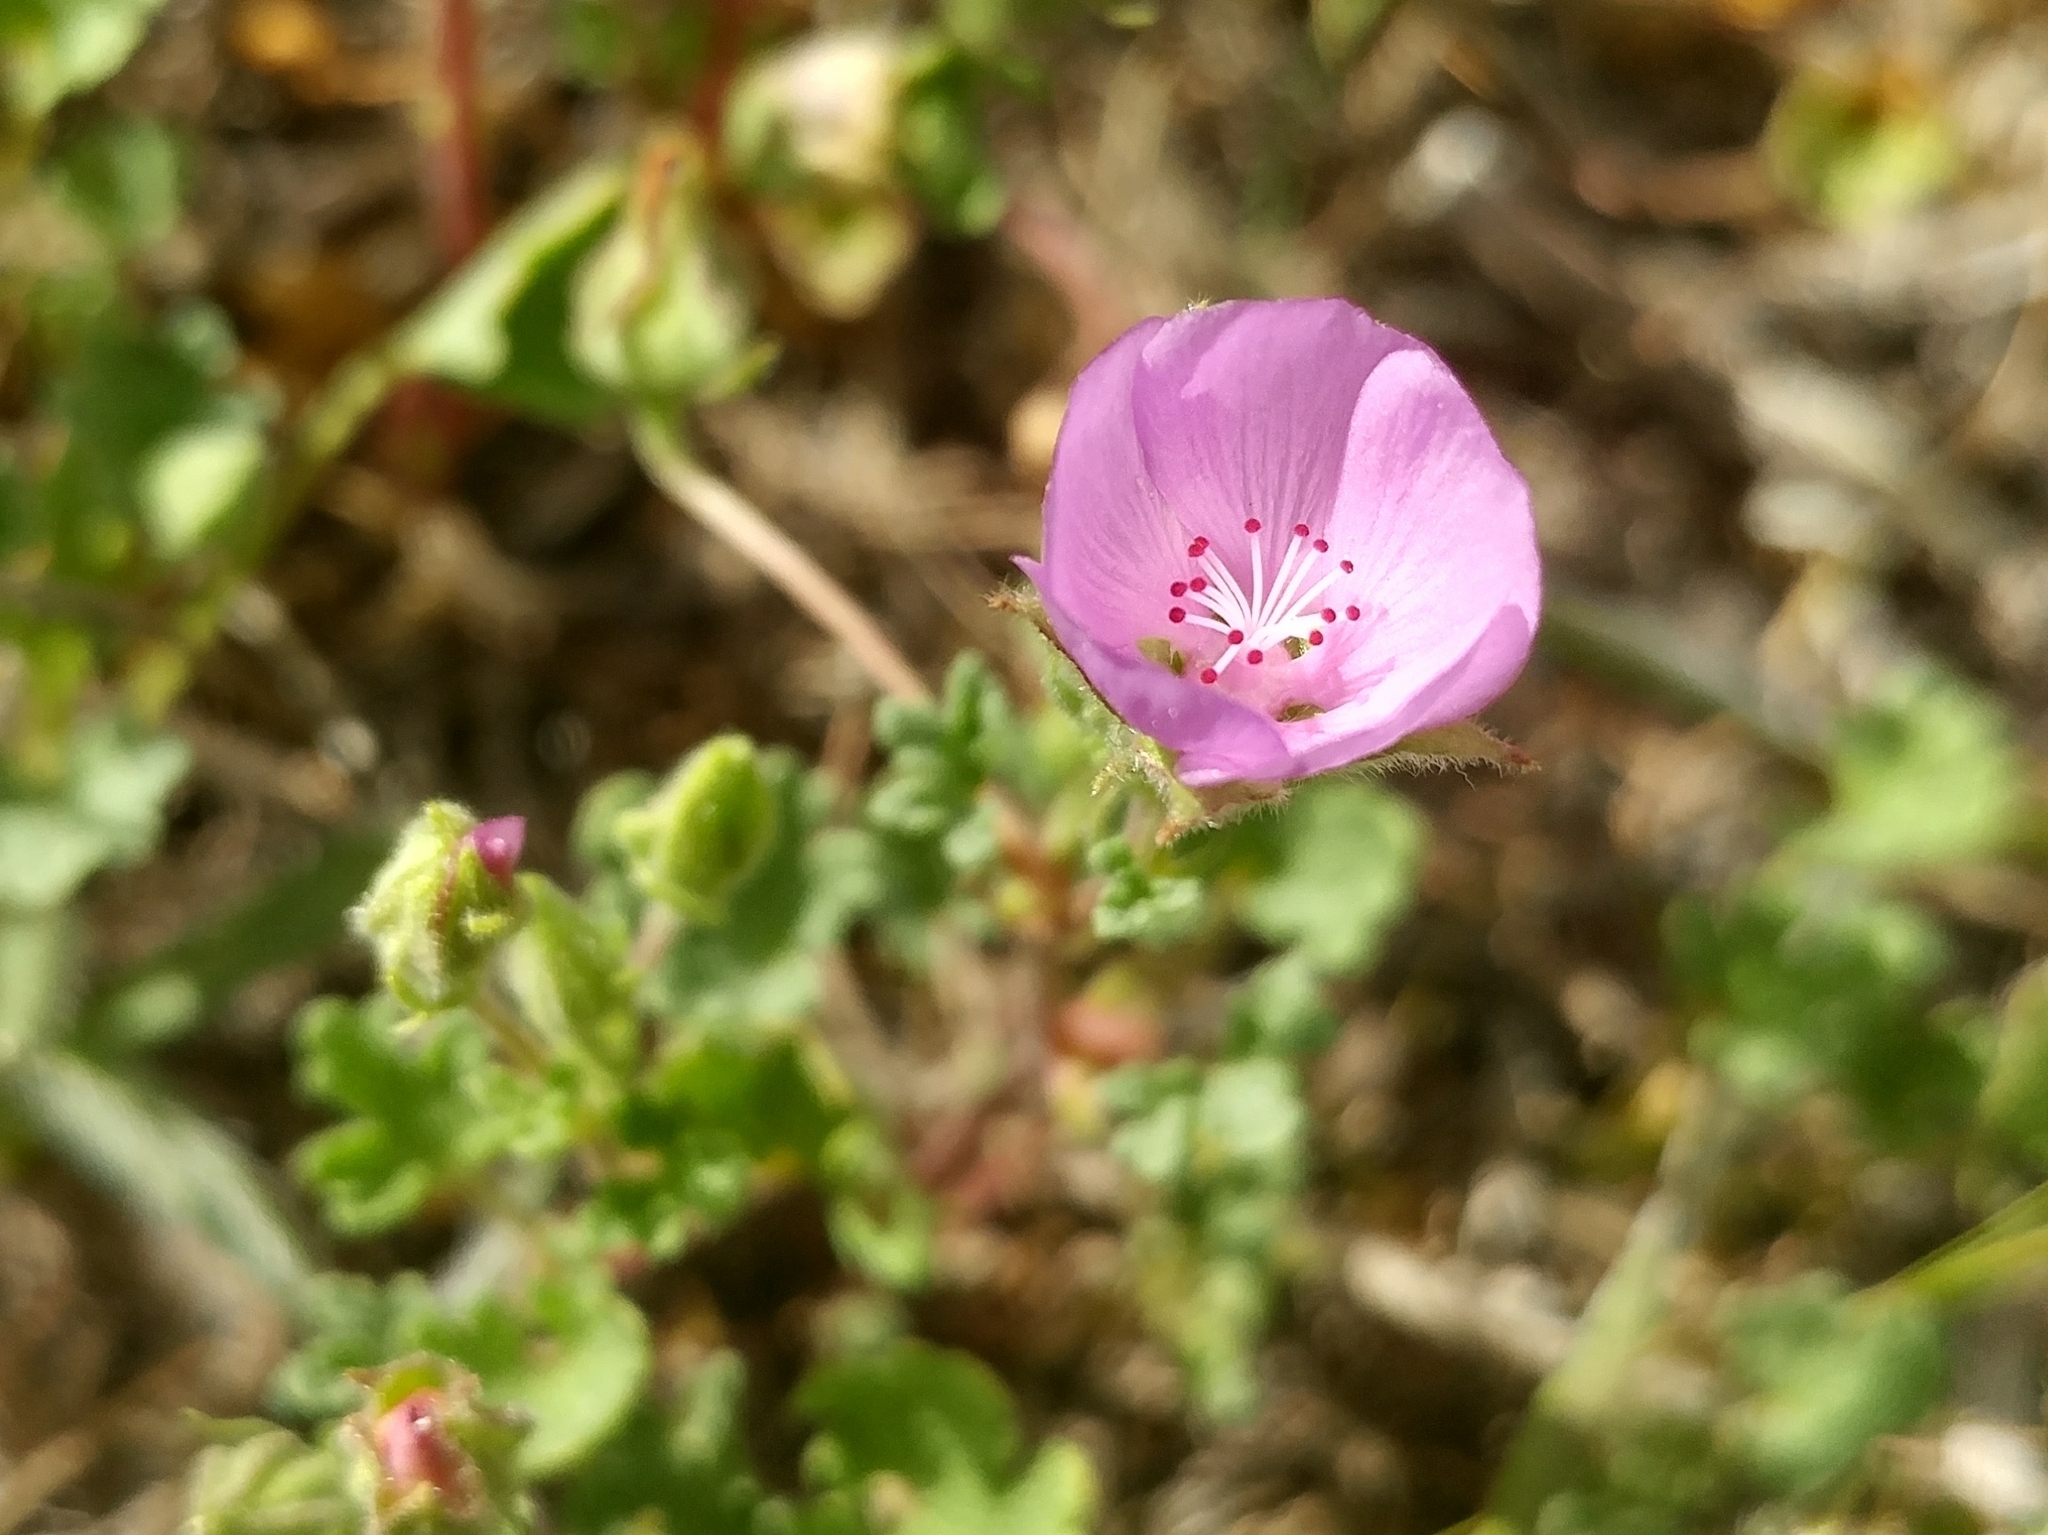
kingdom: Plantae
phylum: Tracheophyta
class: Magnoliopsida
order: Malvales
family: Malvaceae
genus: Eremalche
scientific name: Eremalche parryi
